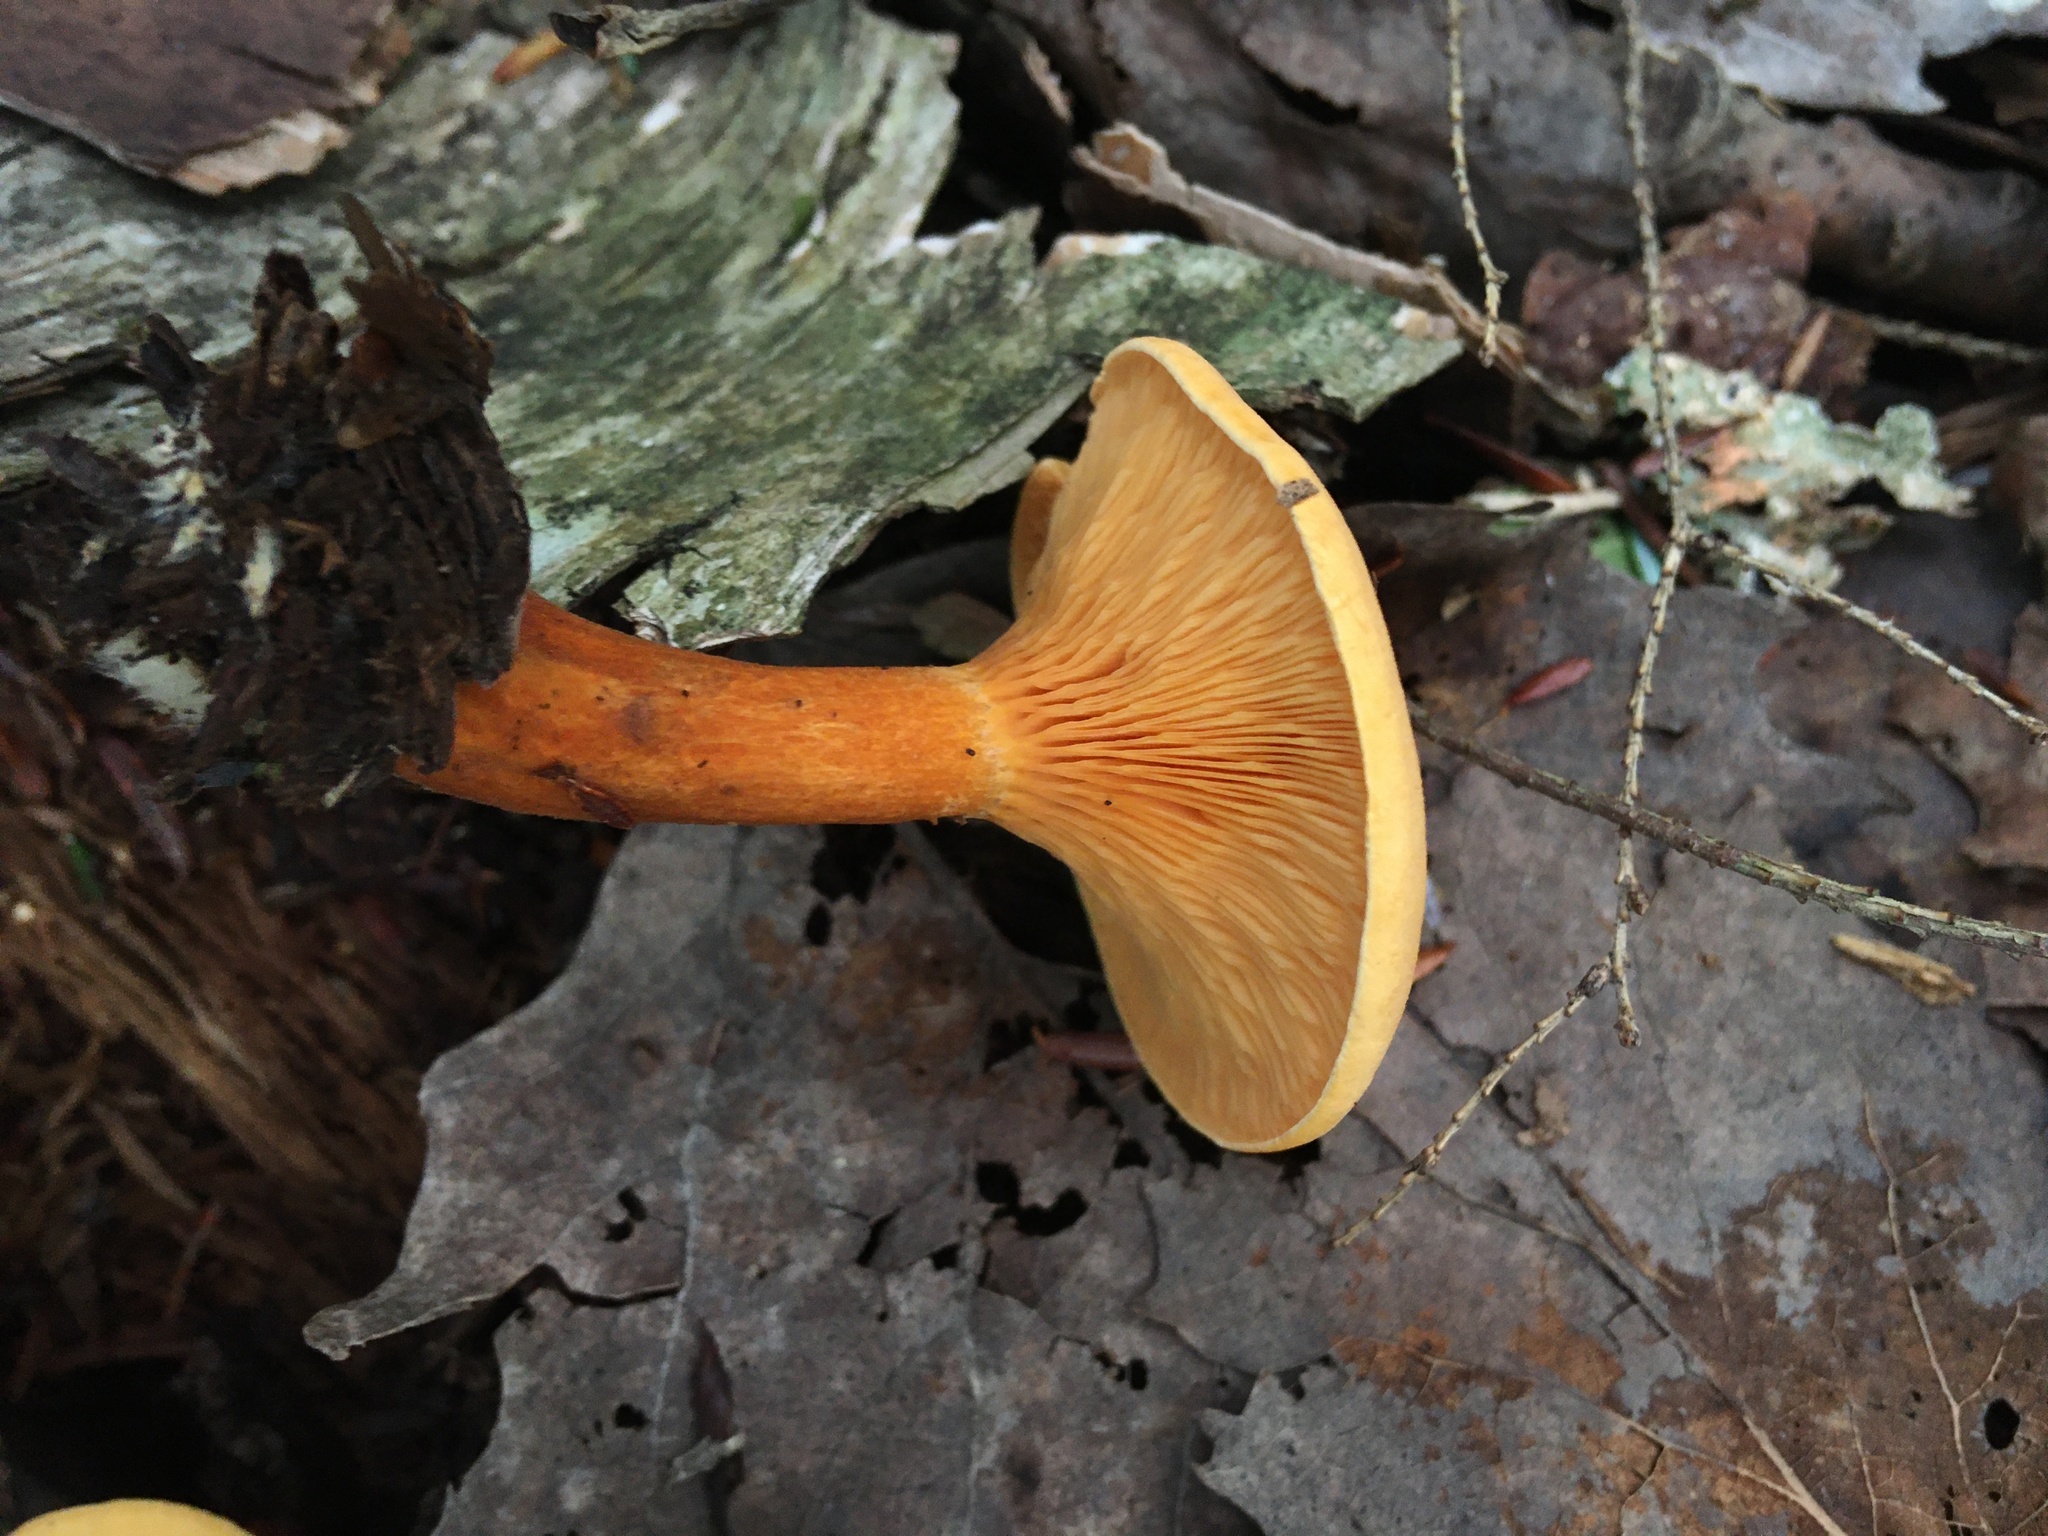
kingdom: Fungi
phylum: Basidiomycota
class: Agaricomycetes
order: Boletales
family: Hygrophoropsidaceae
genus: Hygrophoropsis
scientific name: Hygrophoropsis aurantiaca
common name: False chanterelle
